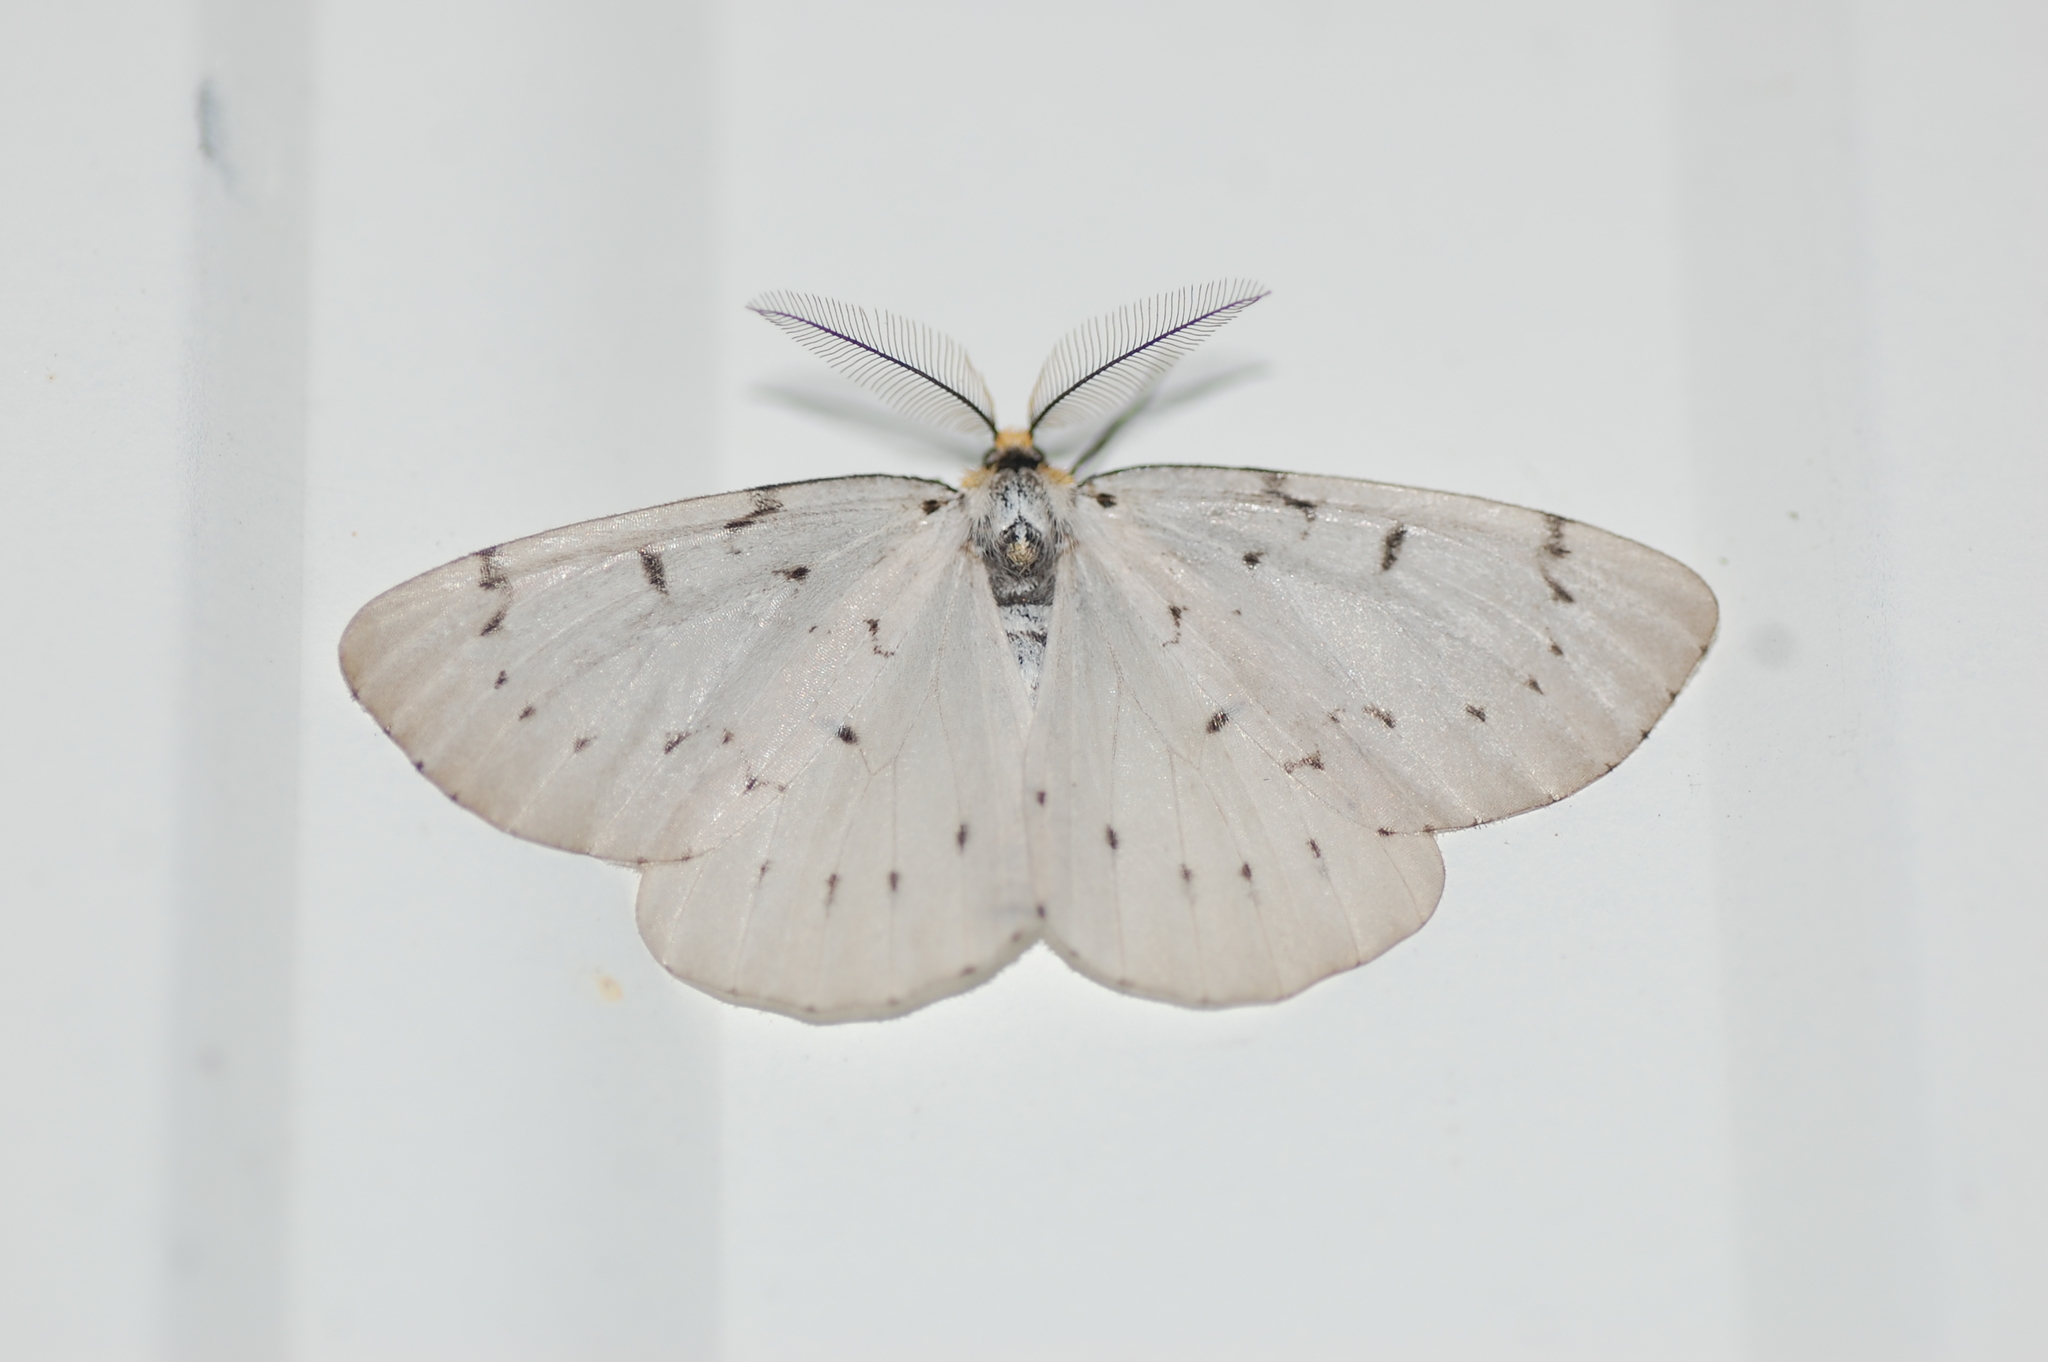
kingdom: Animalia
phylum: Arthropoda
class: Insecta
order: Lepidoptera
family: Geometridae
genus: Cingilia
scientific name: Cingilia catenaria
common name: Chain-dotted geometer
